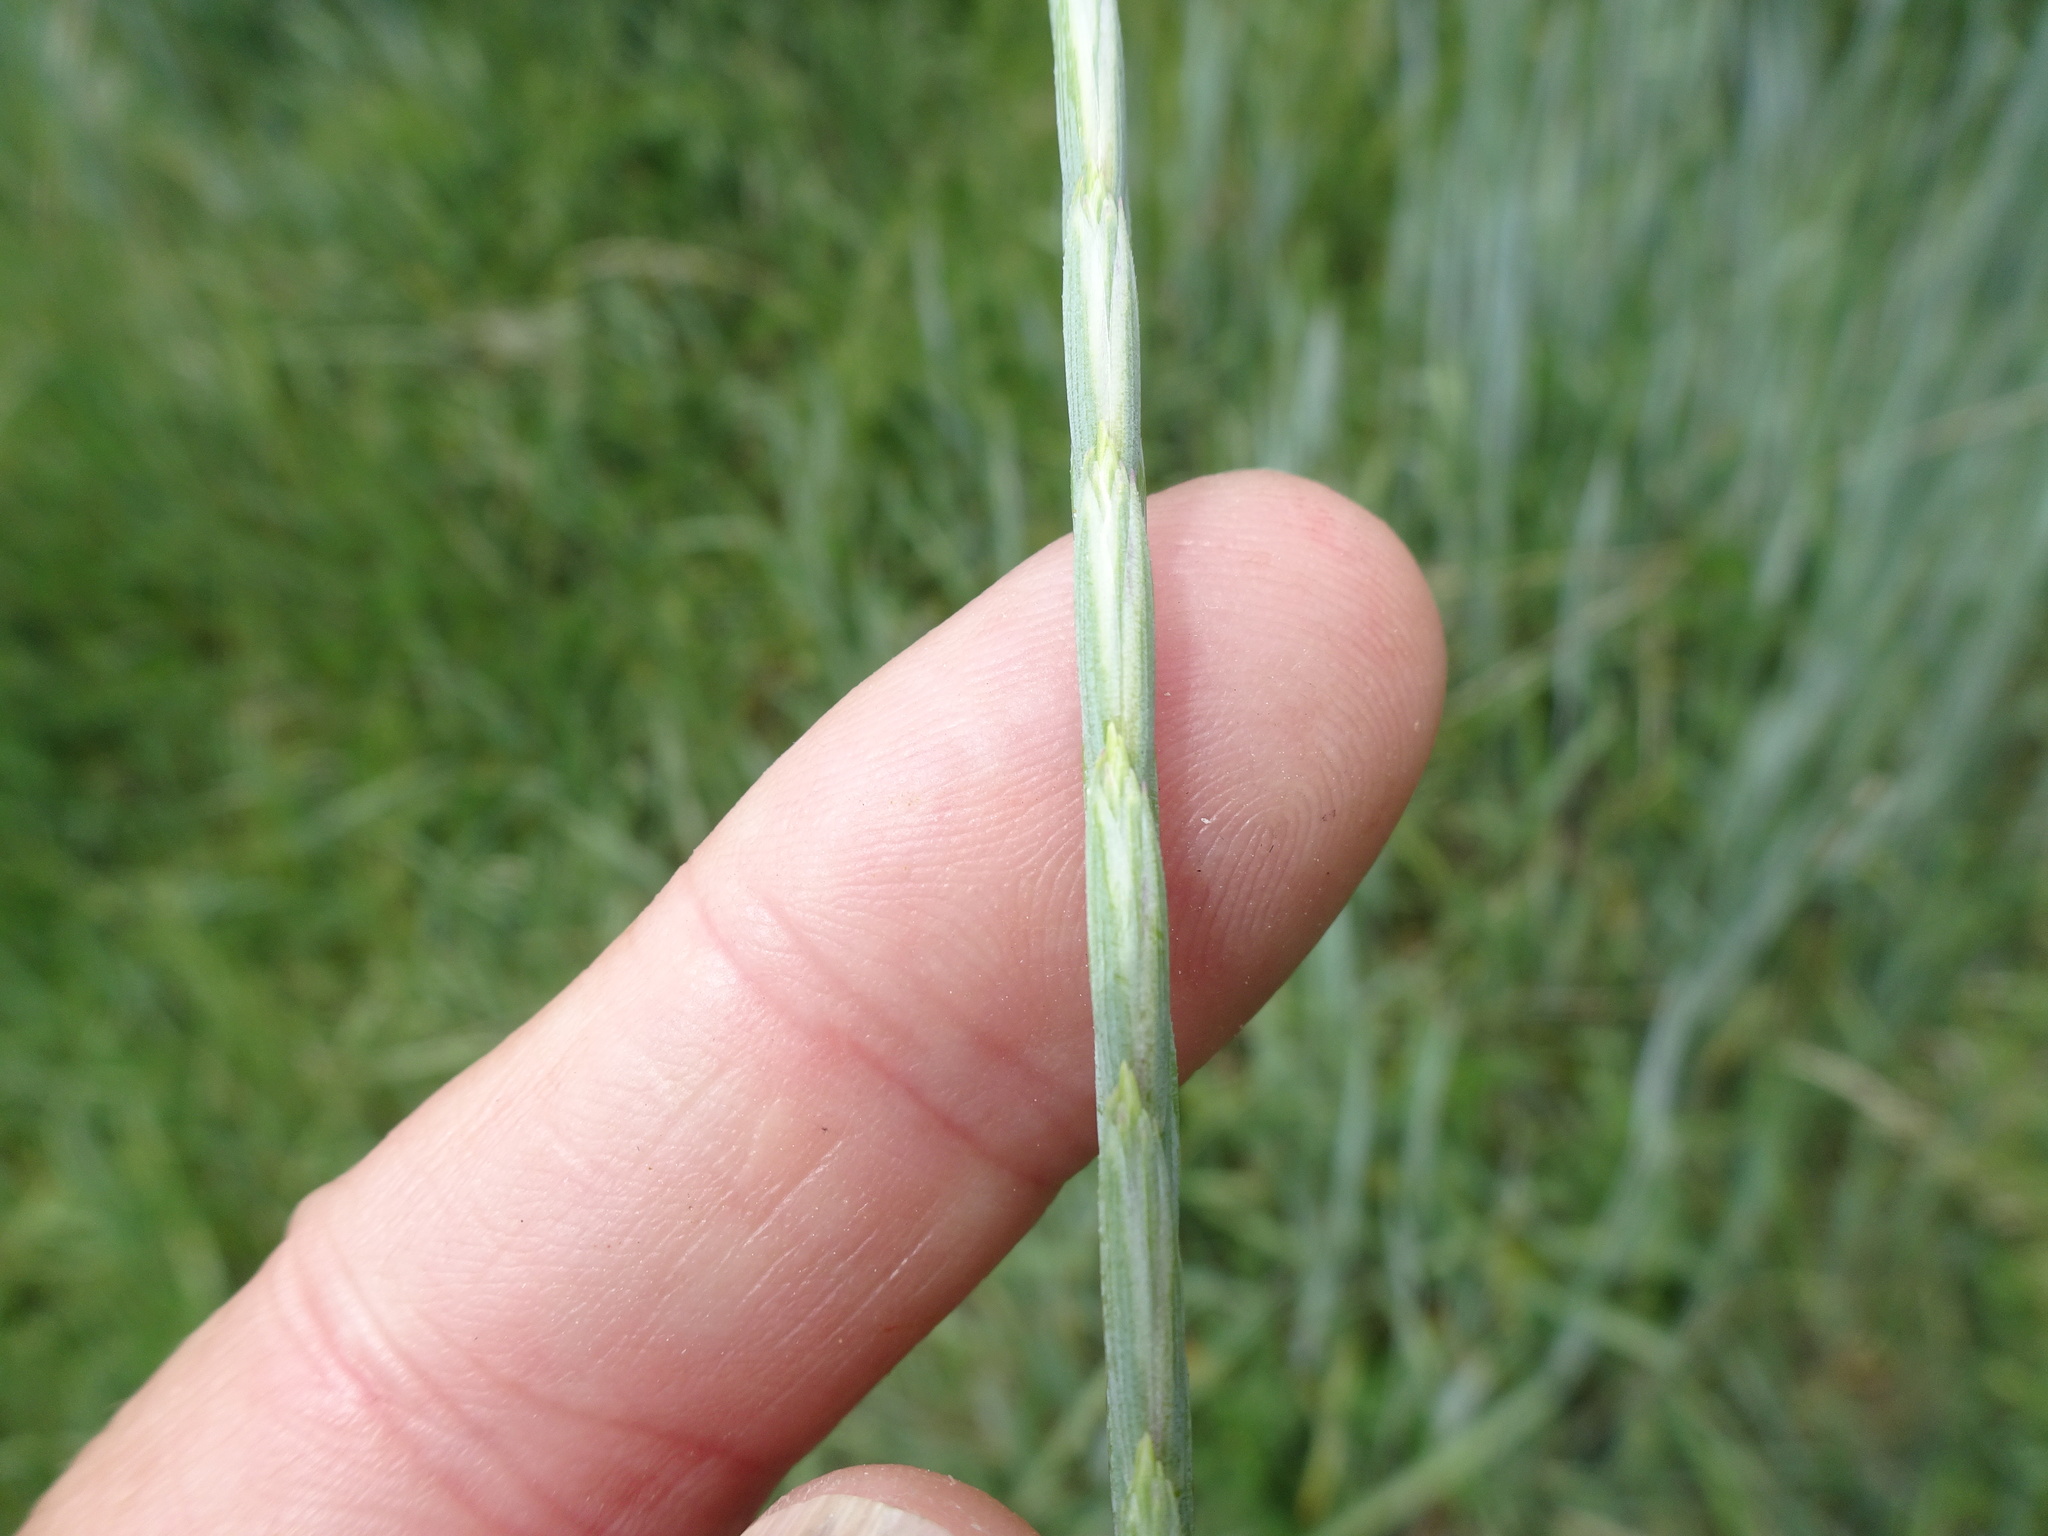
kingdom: Plantae
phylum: Tracheophyta
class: Liliopsida
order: Poales
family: Poaceae
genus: Elymus
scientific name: Elymus repens
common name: Quackgrass
